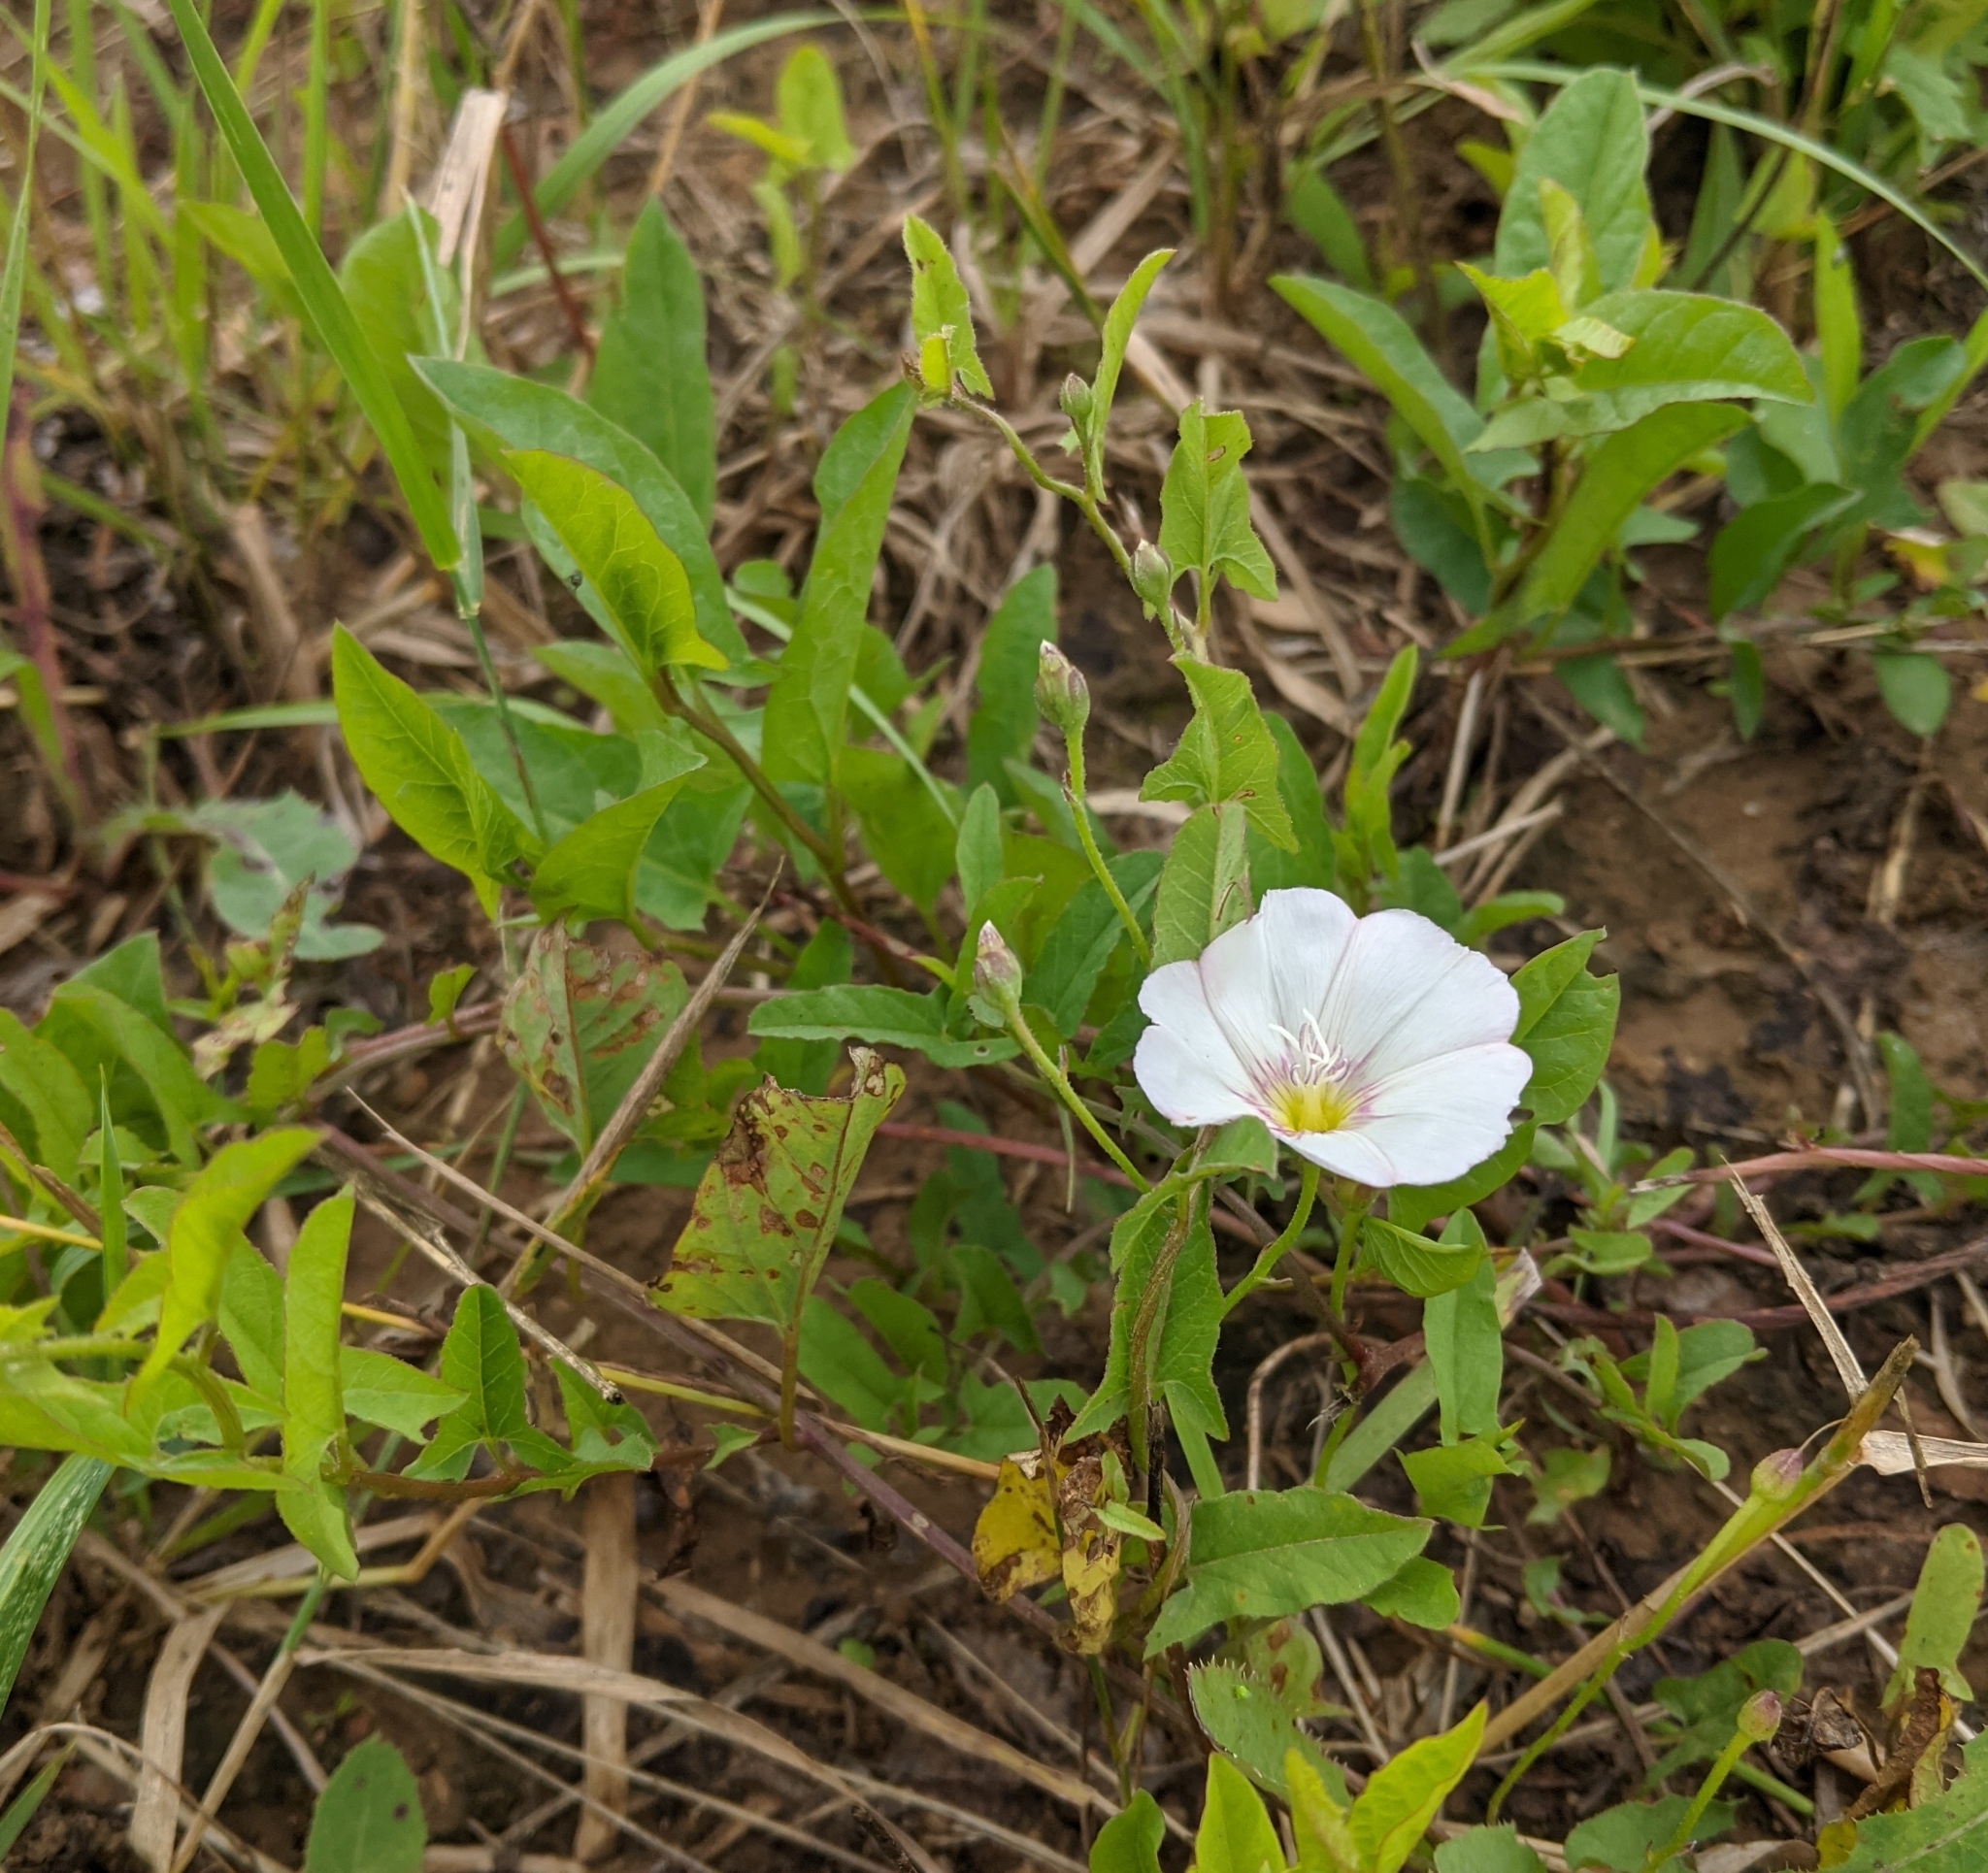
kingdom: Plantae
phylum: Tracheophyta
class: Magnoliopsida
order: Solanales
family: Convolvulaceae
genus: Convolvulus
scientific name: Convolvulus arvensis
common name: Field bindweed
